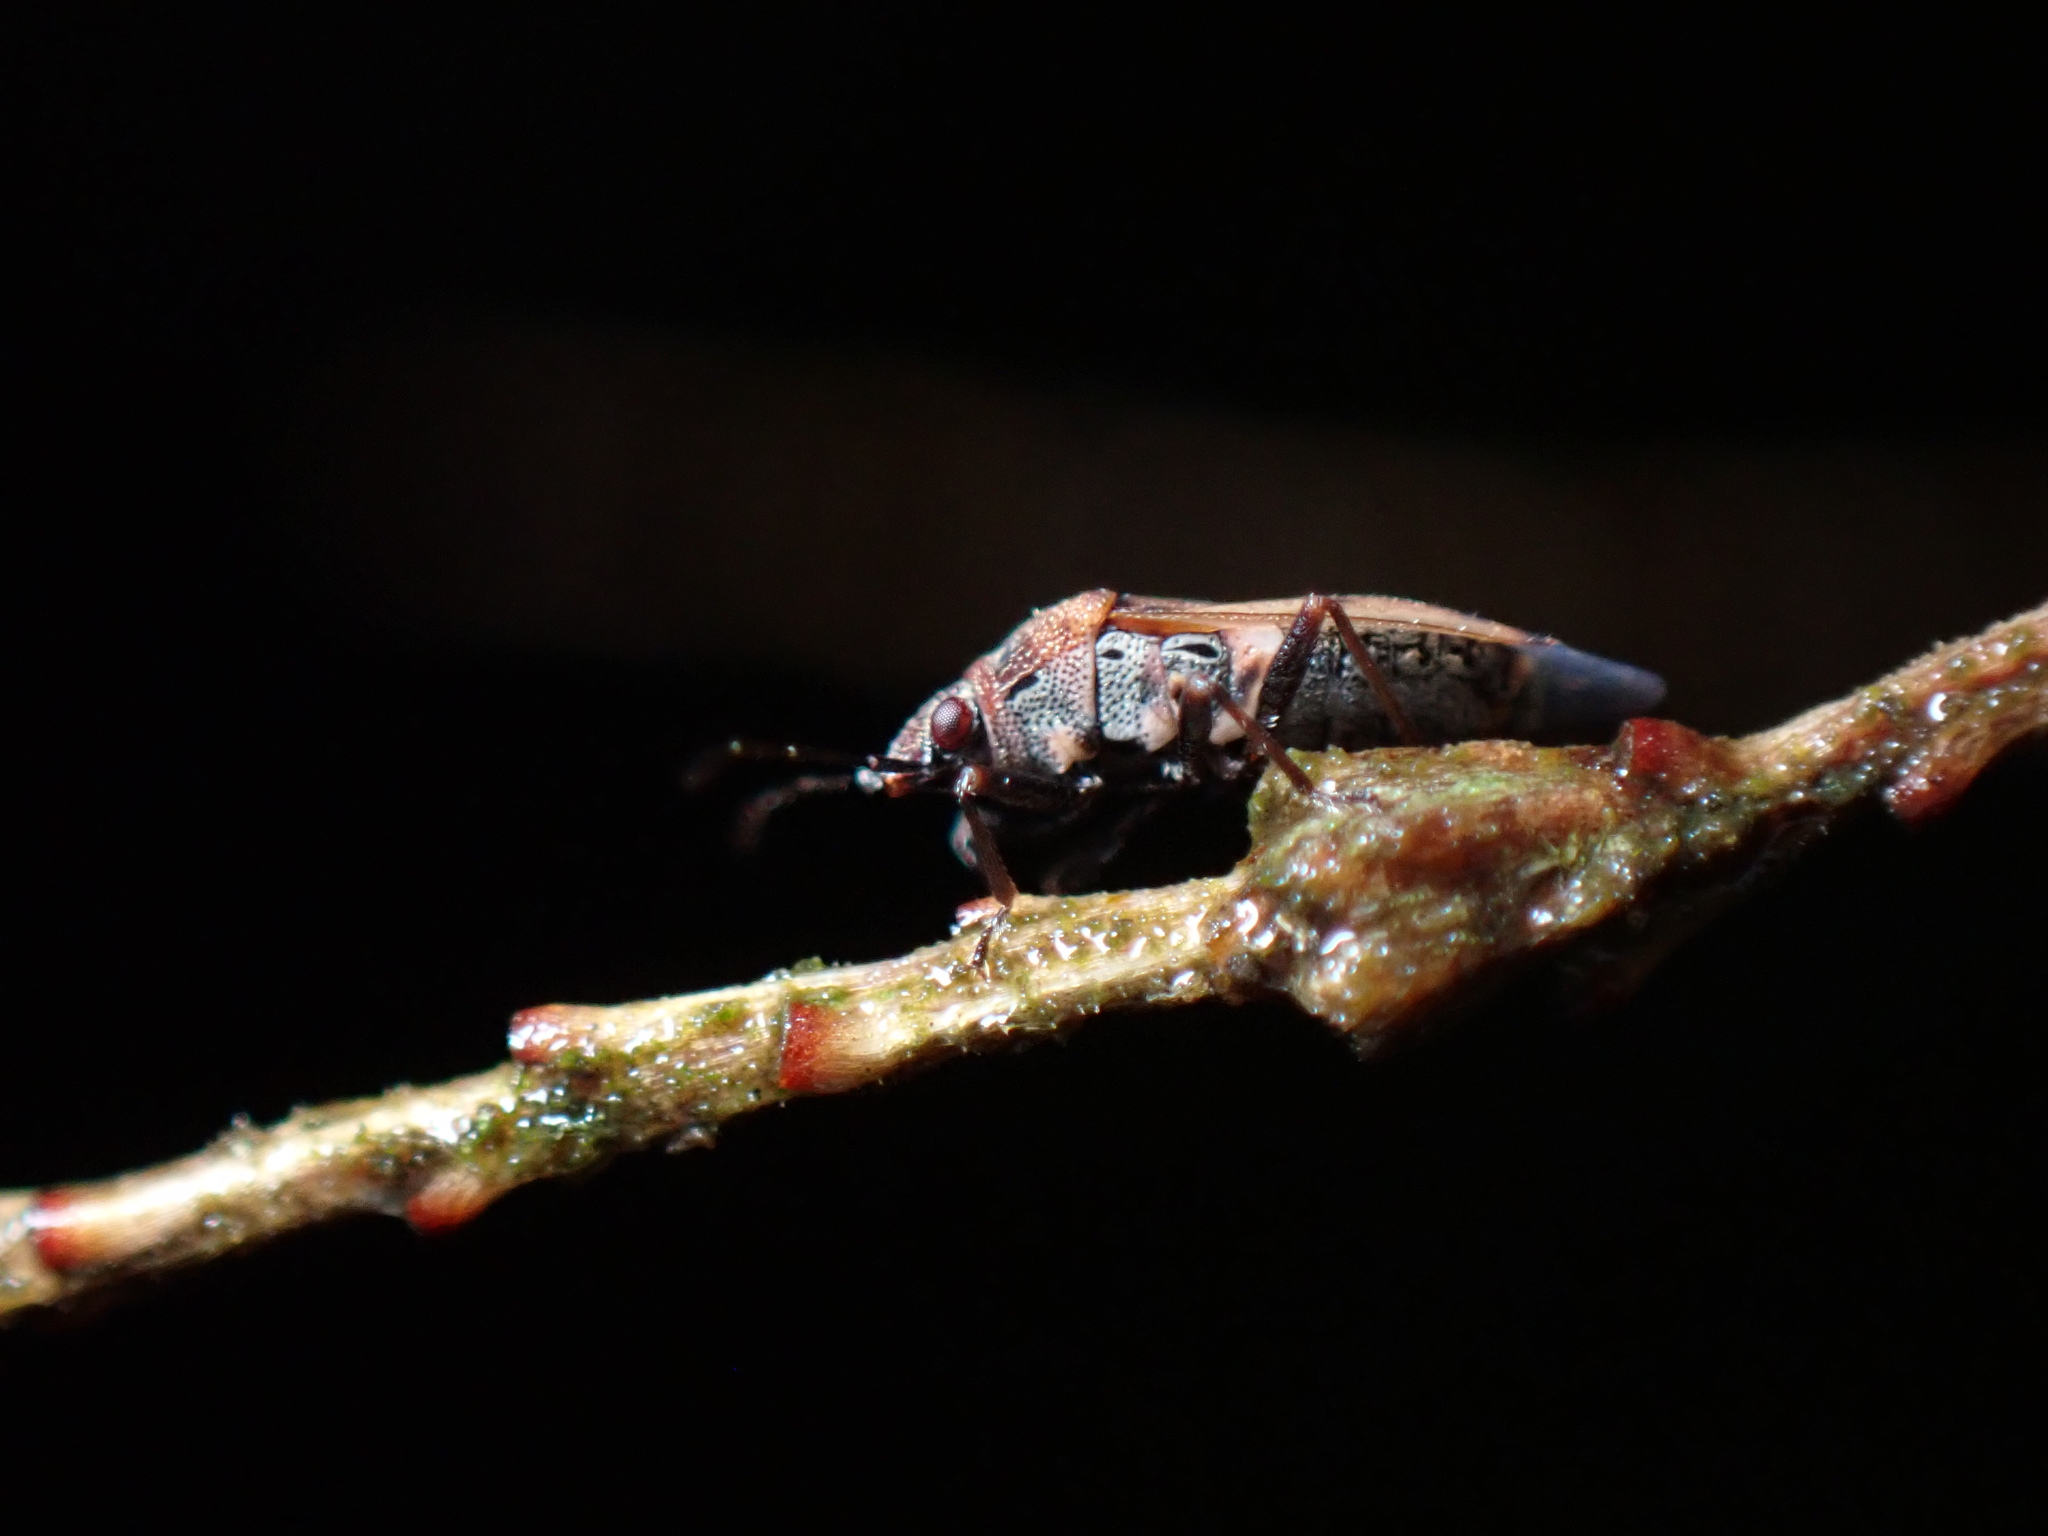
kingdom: Animalia
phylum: Arthropoda
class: Insecta
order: Hemiptera
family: Lygaeidae
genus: Kleidocerys
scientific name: Kleidocerys resedae
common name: Birch catkin bug
